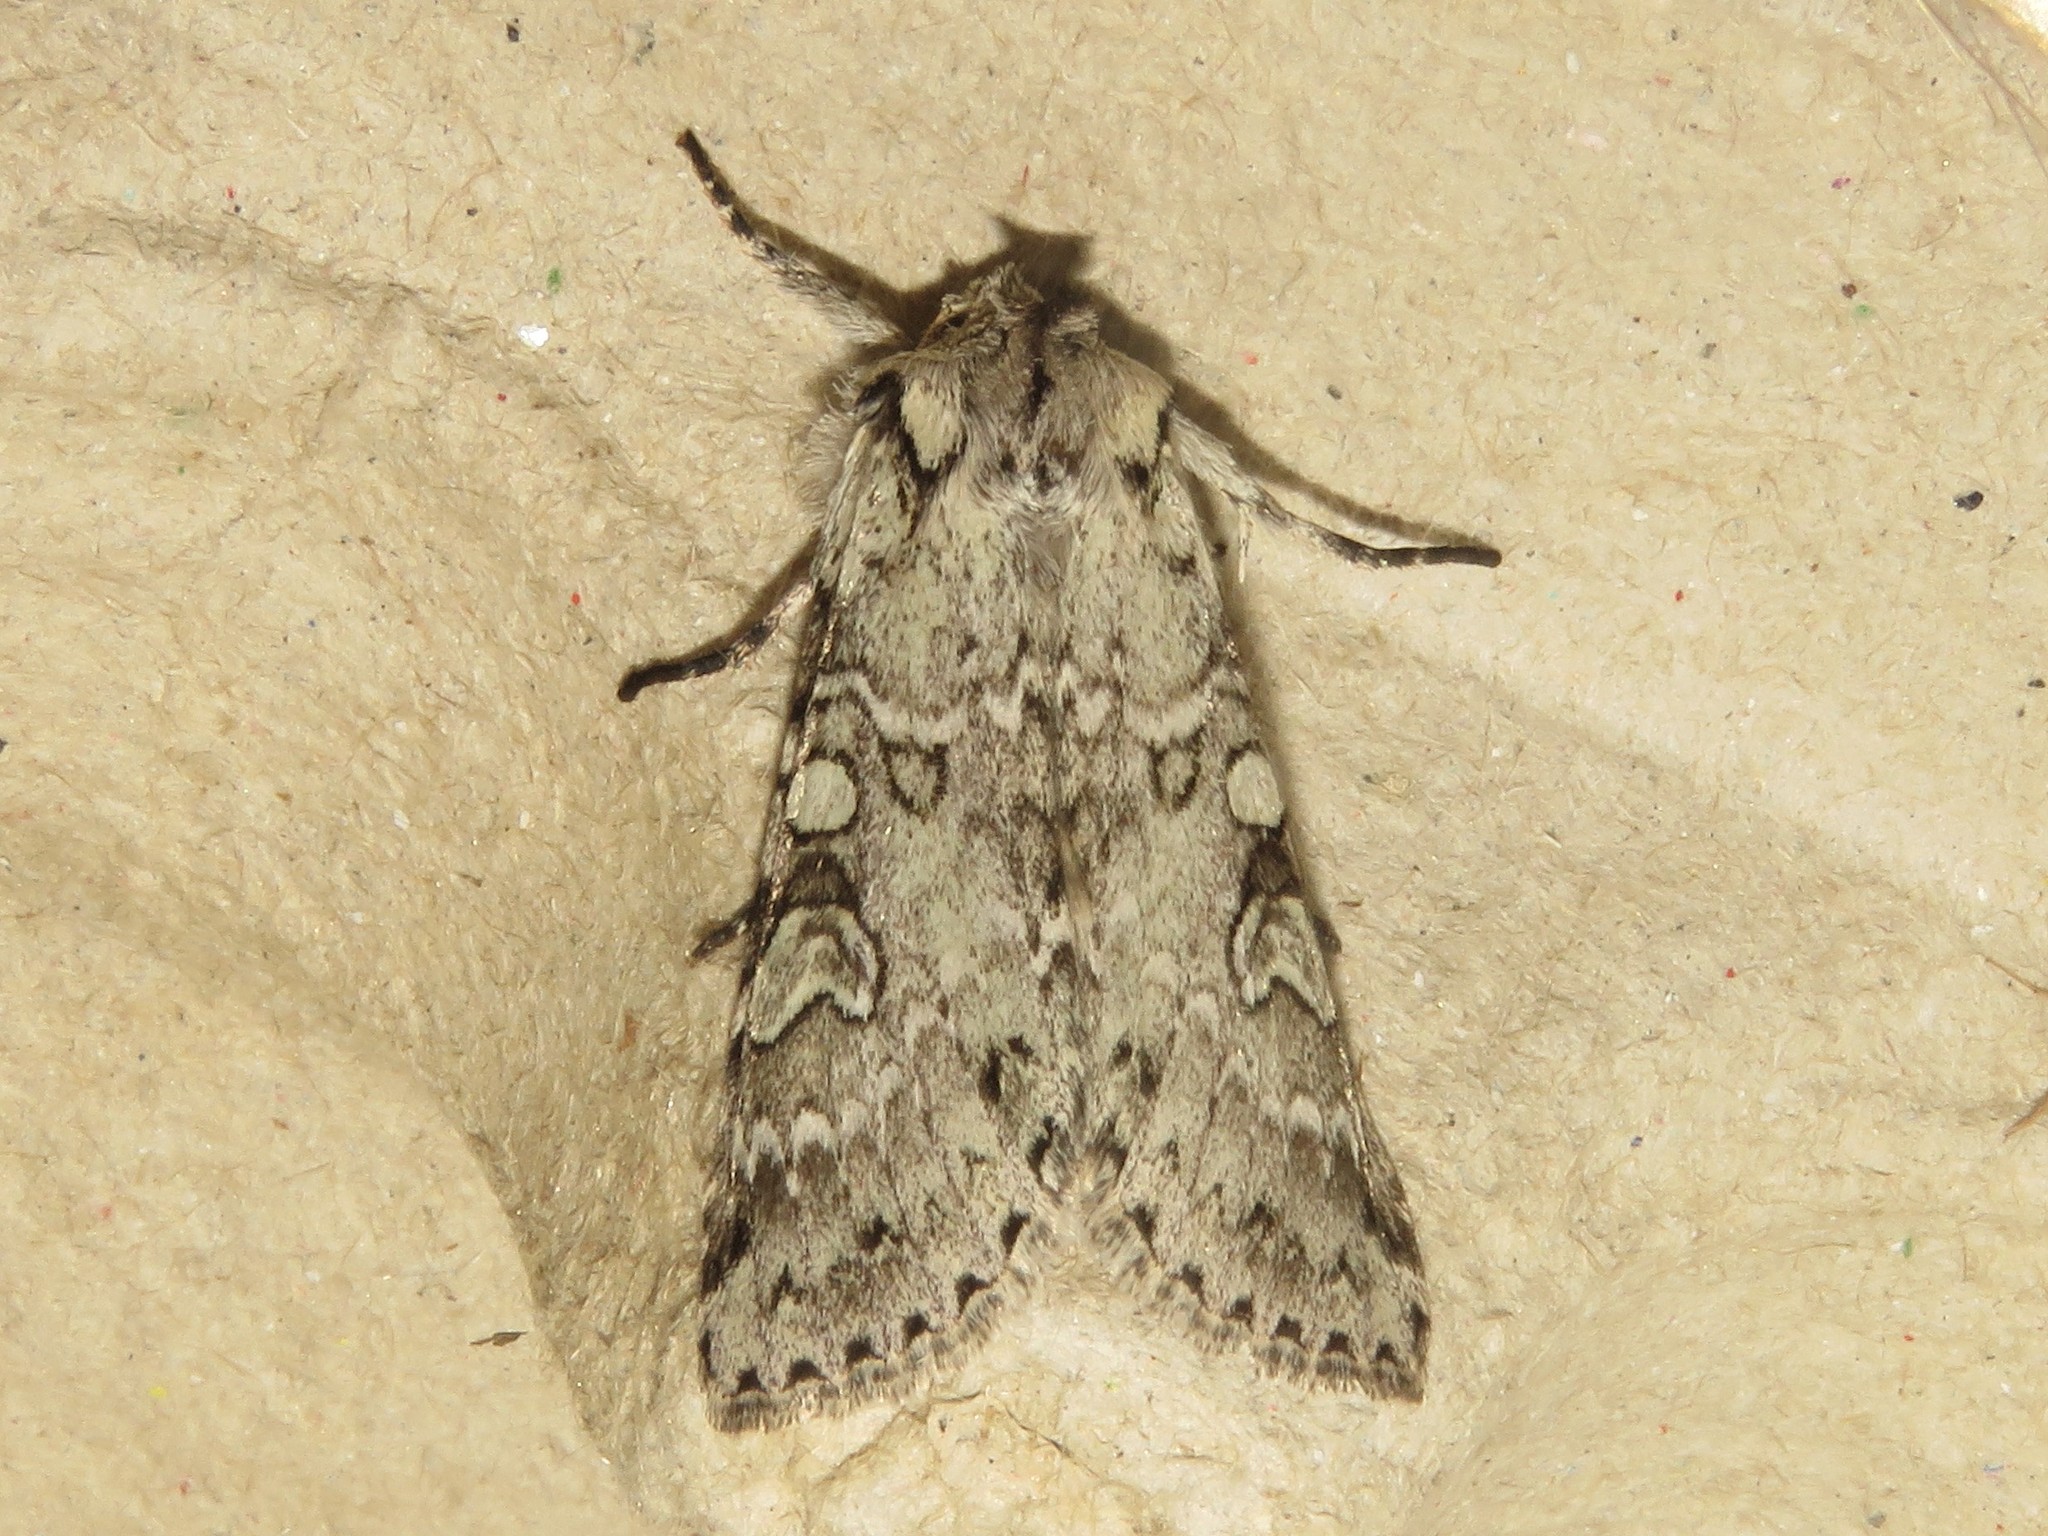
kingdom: Animalia
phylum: Arthropoda
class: Insecta
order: Lepidoptera
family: Noctuidae
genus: Polia
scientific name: Polia nimbosa
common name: Stormy arches
